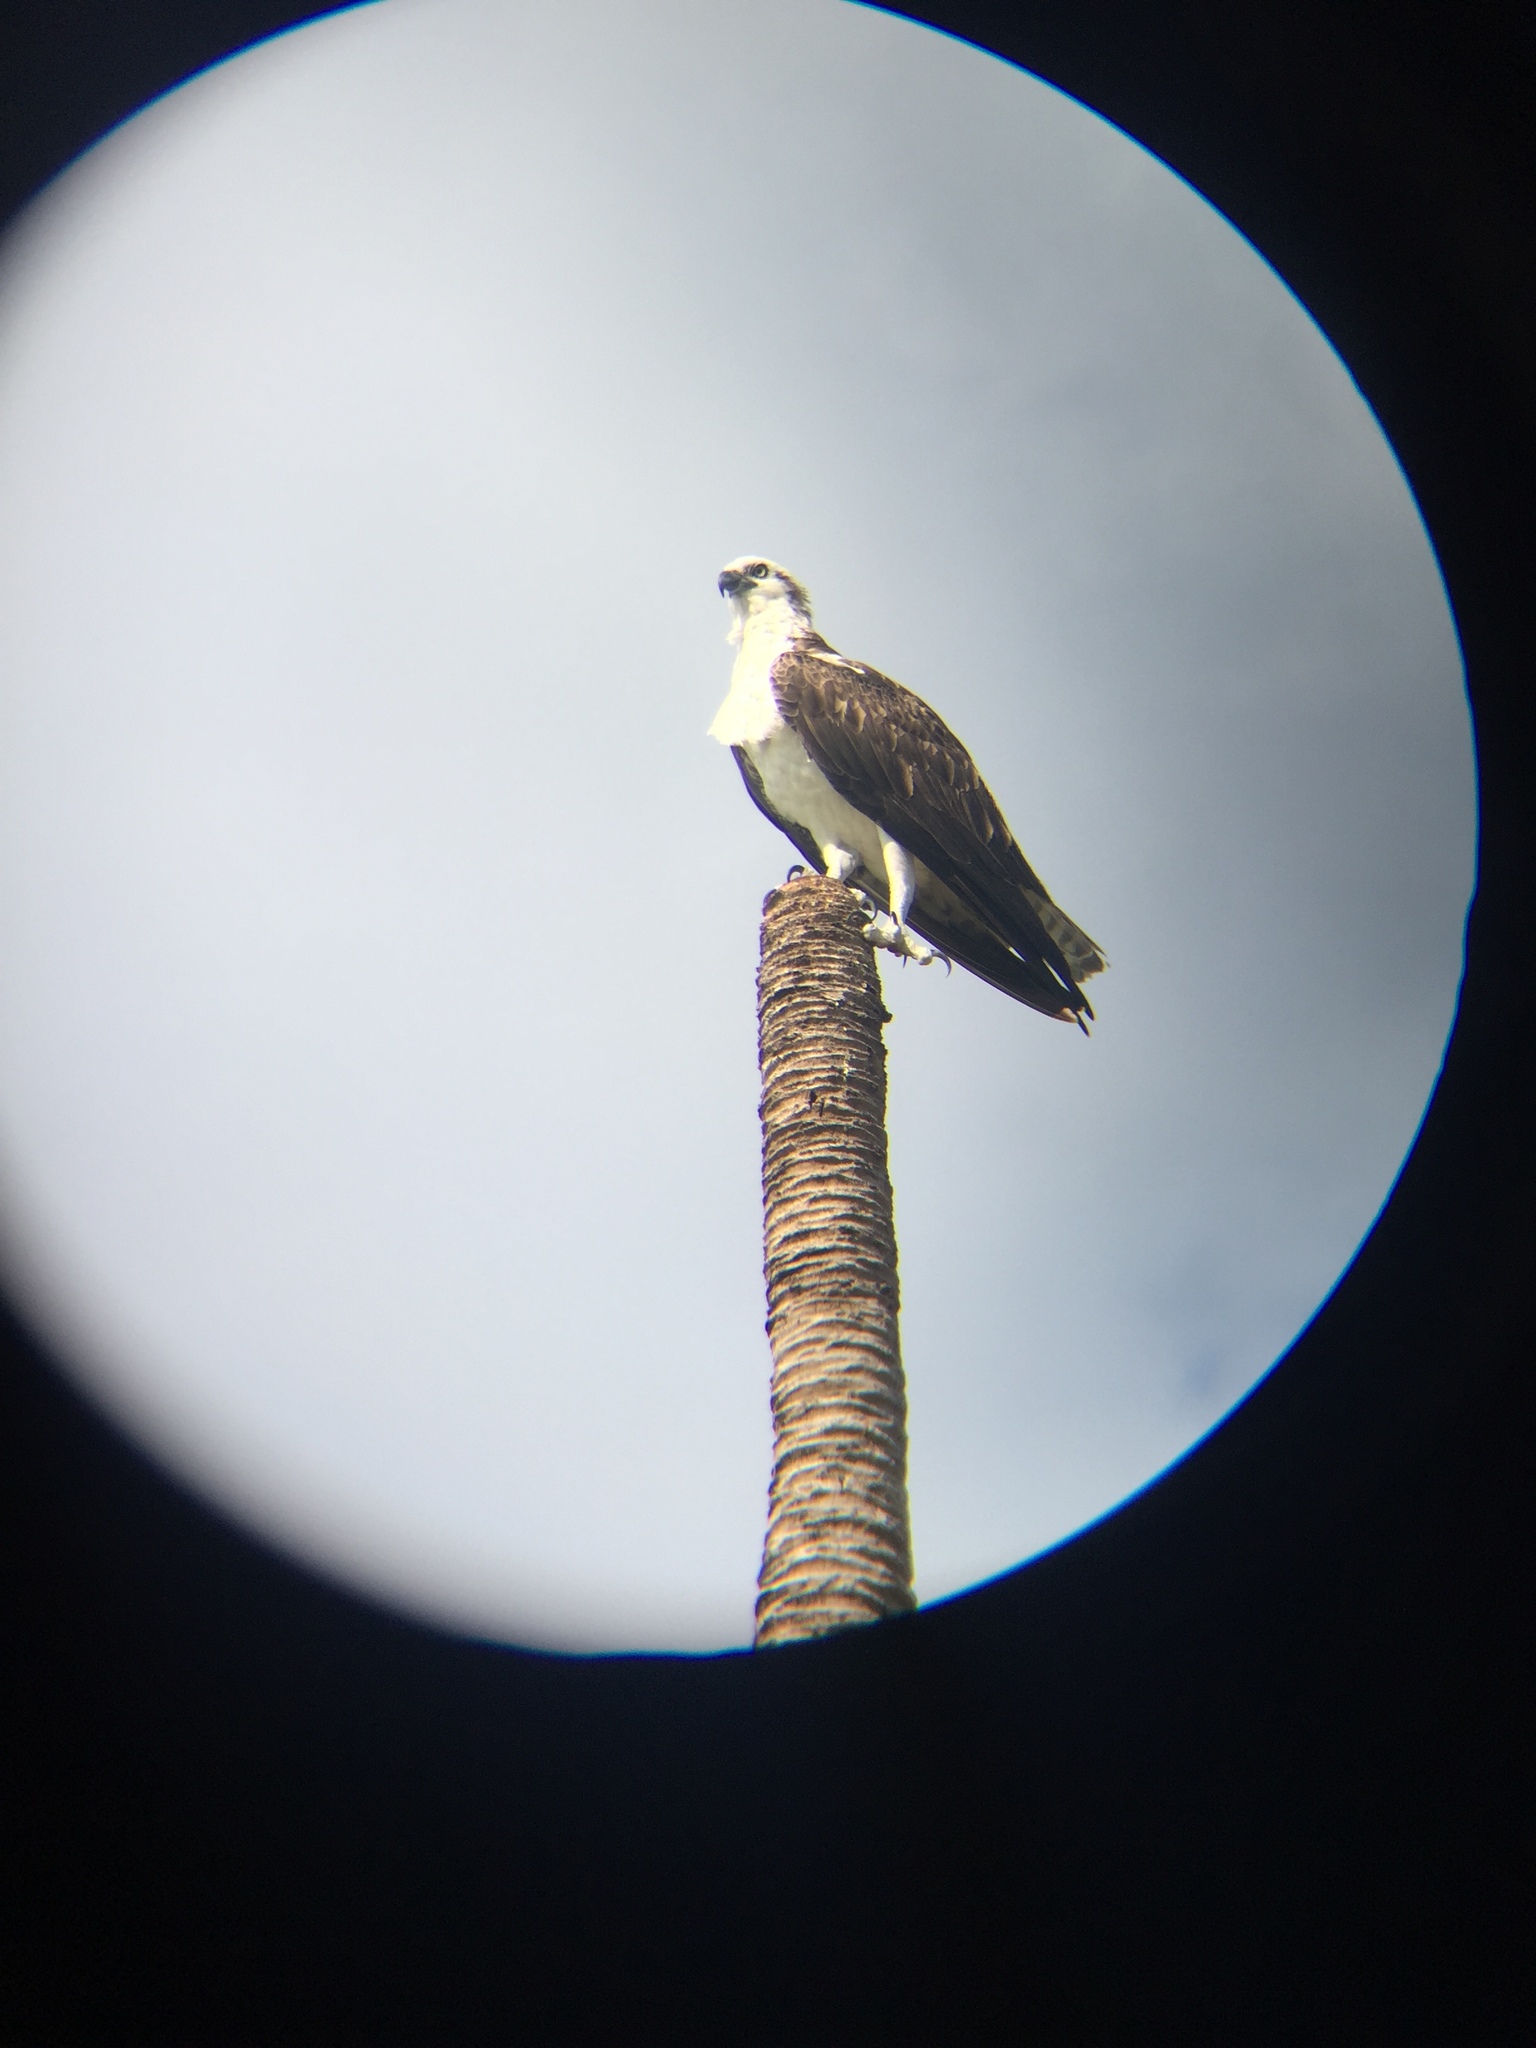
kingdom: Animalia
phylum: Chordata
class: Aves
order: Accipitriformes
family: Pandionidae
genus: Pandion
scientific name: Pandion haliaetus
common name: Osprey
